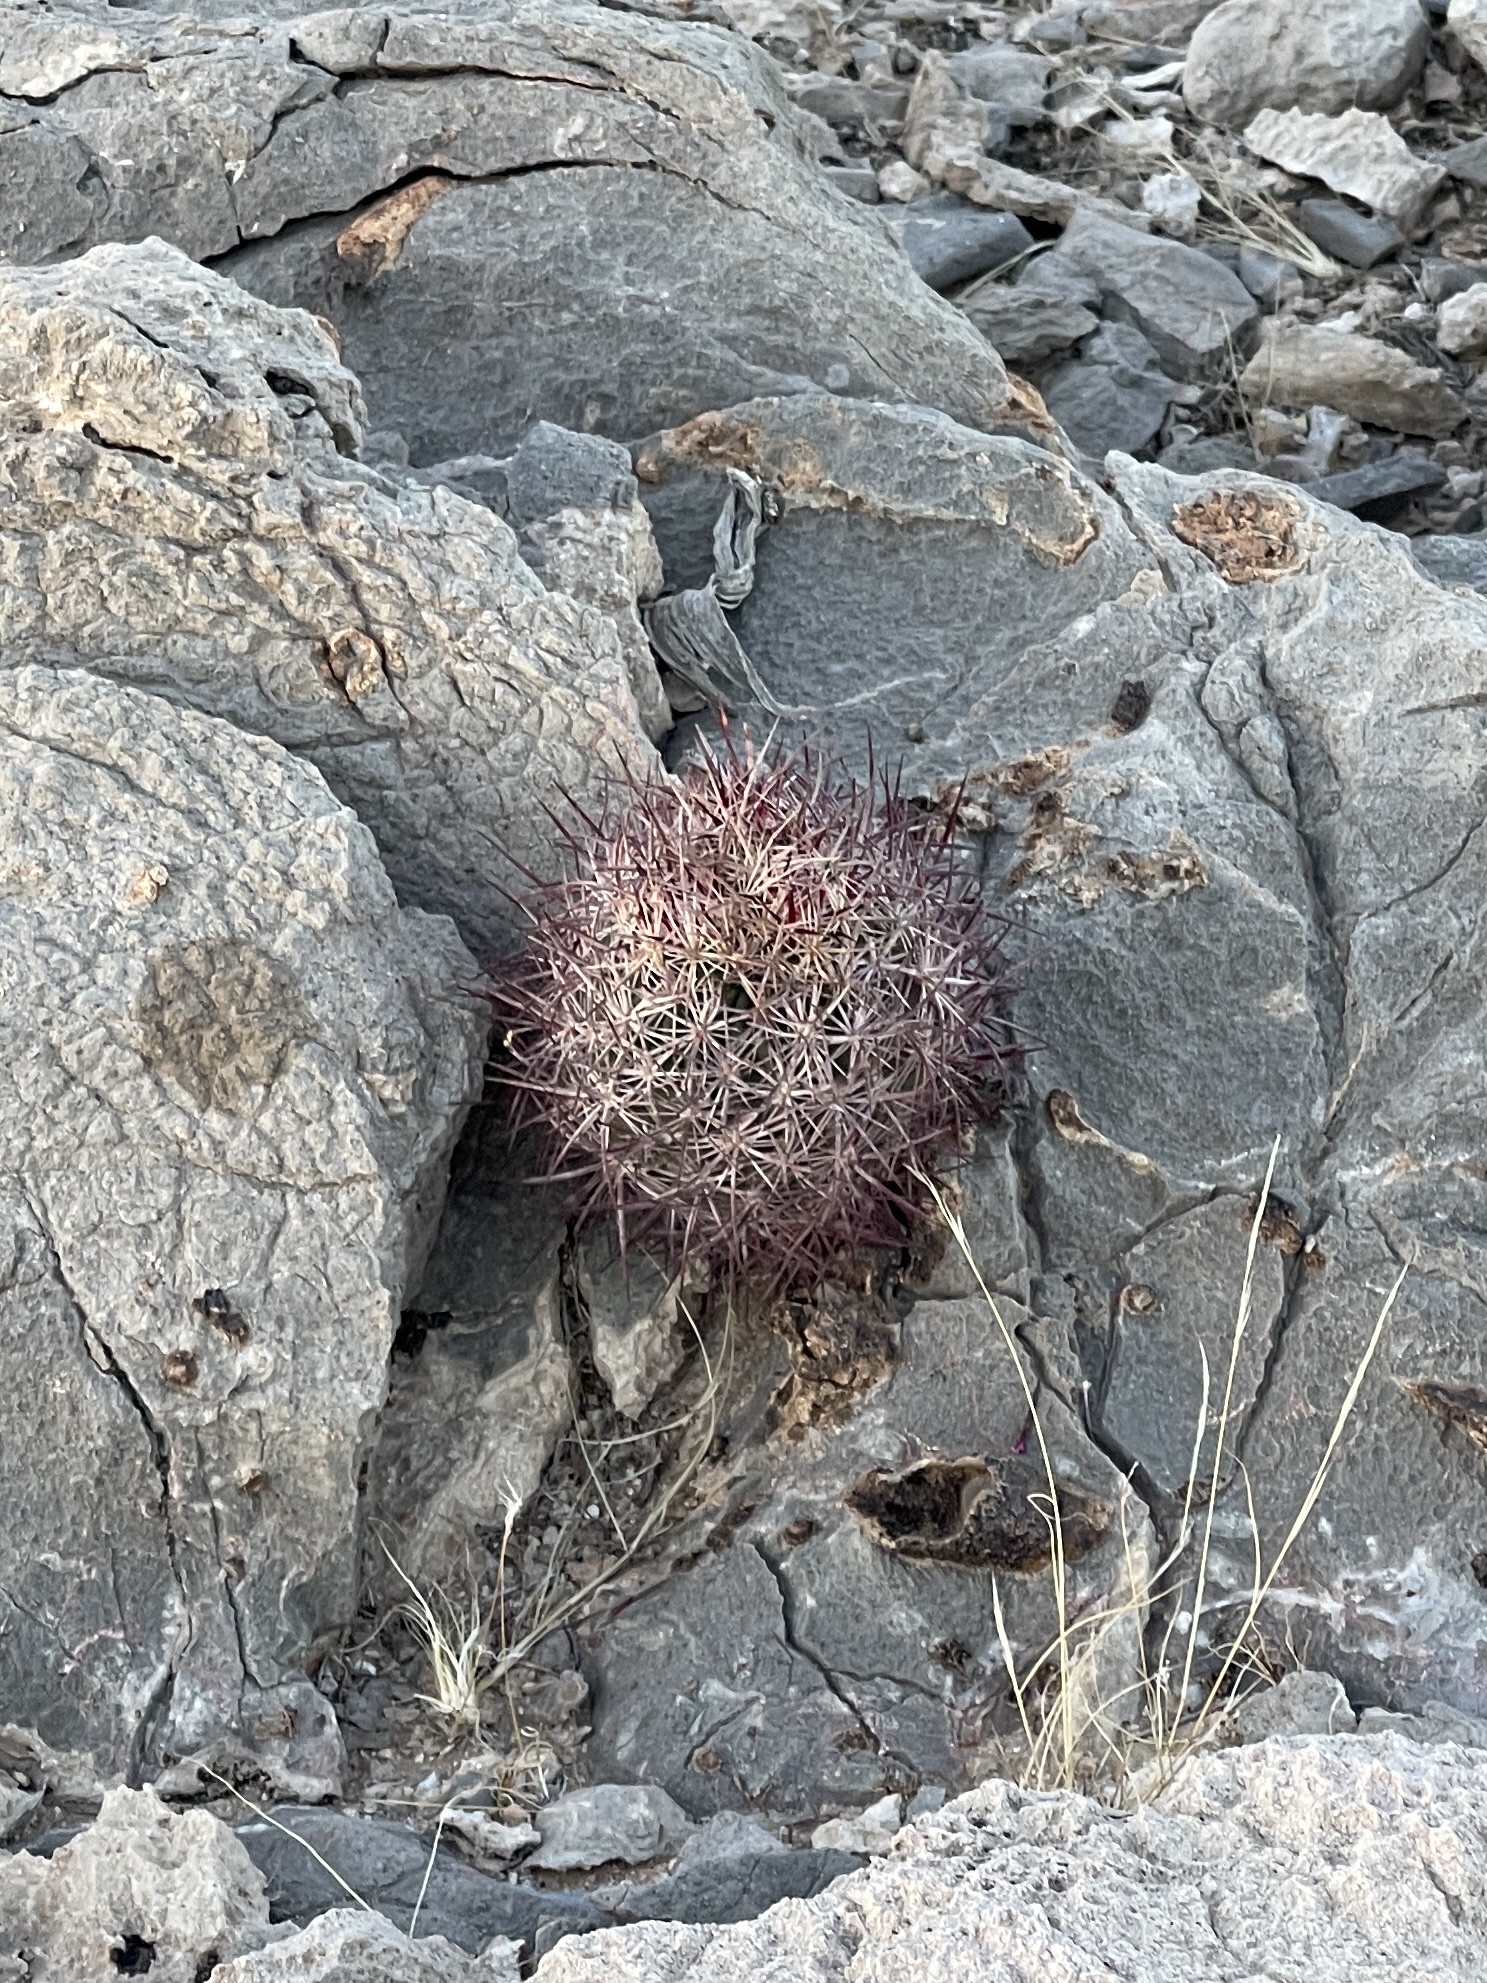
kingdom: Plantae
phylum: Tracheophyta
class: Magnoliopsida
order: Caryophyllales
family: Cactaceae
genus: Sclerocactus
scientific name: Sclerocactus johnsonii
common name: Eight-spine fishhook cactus
